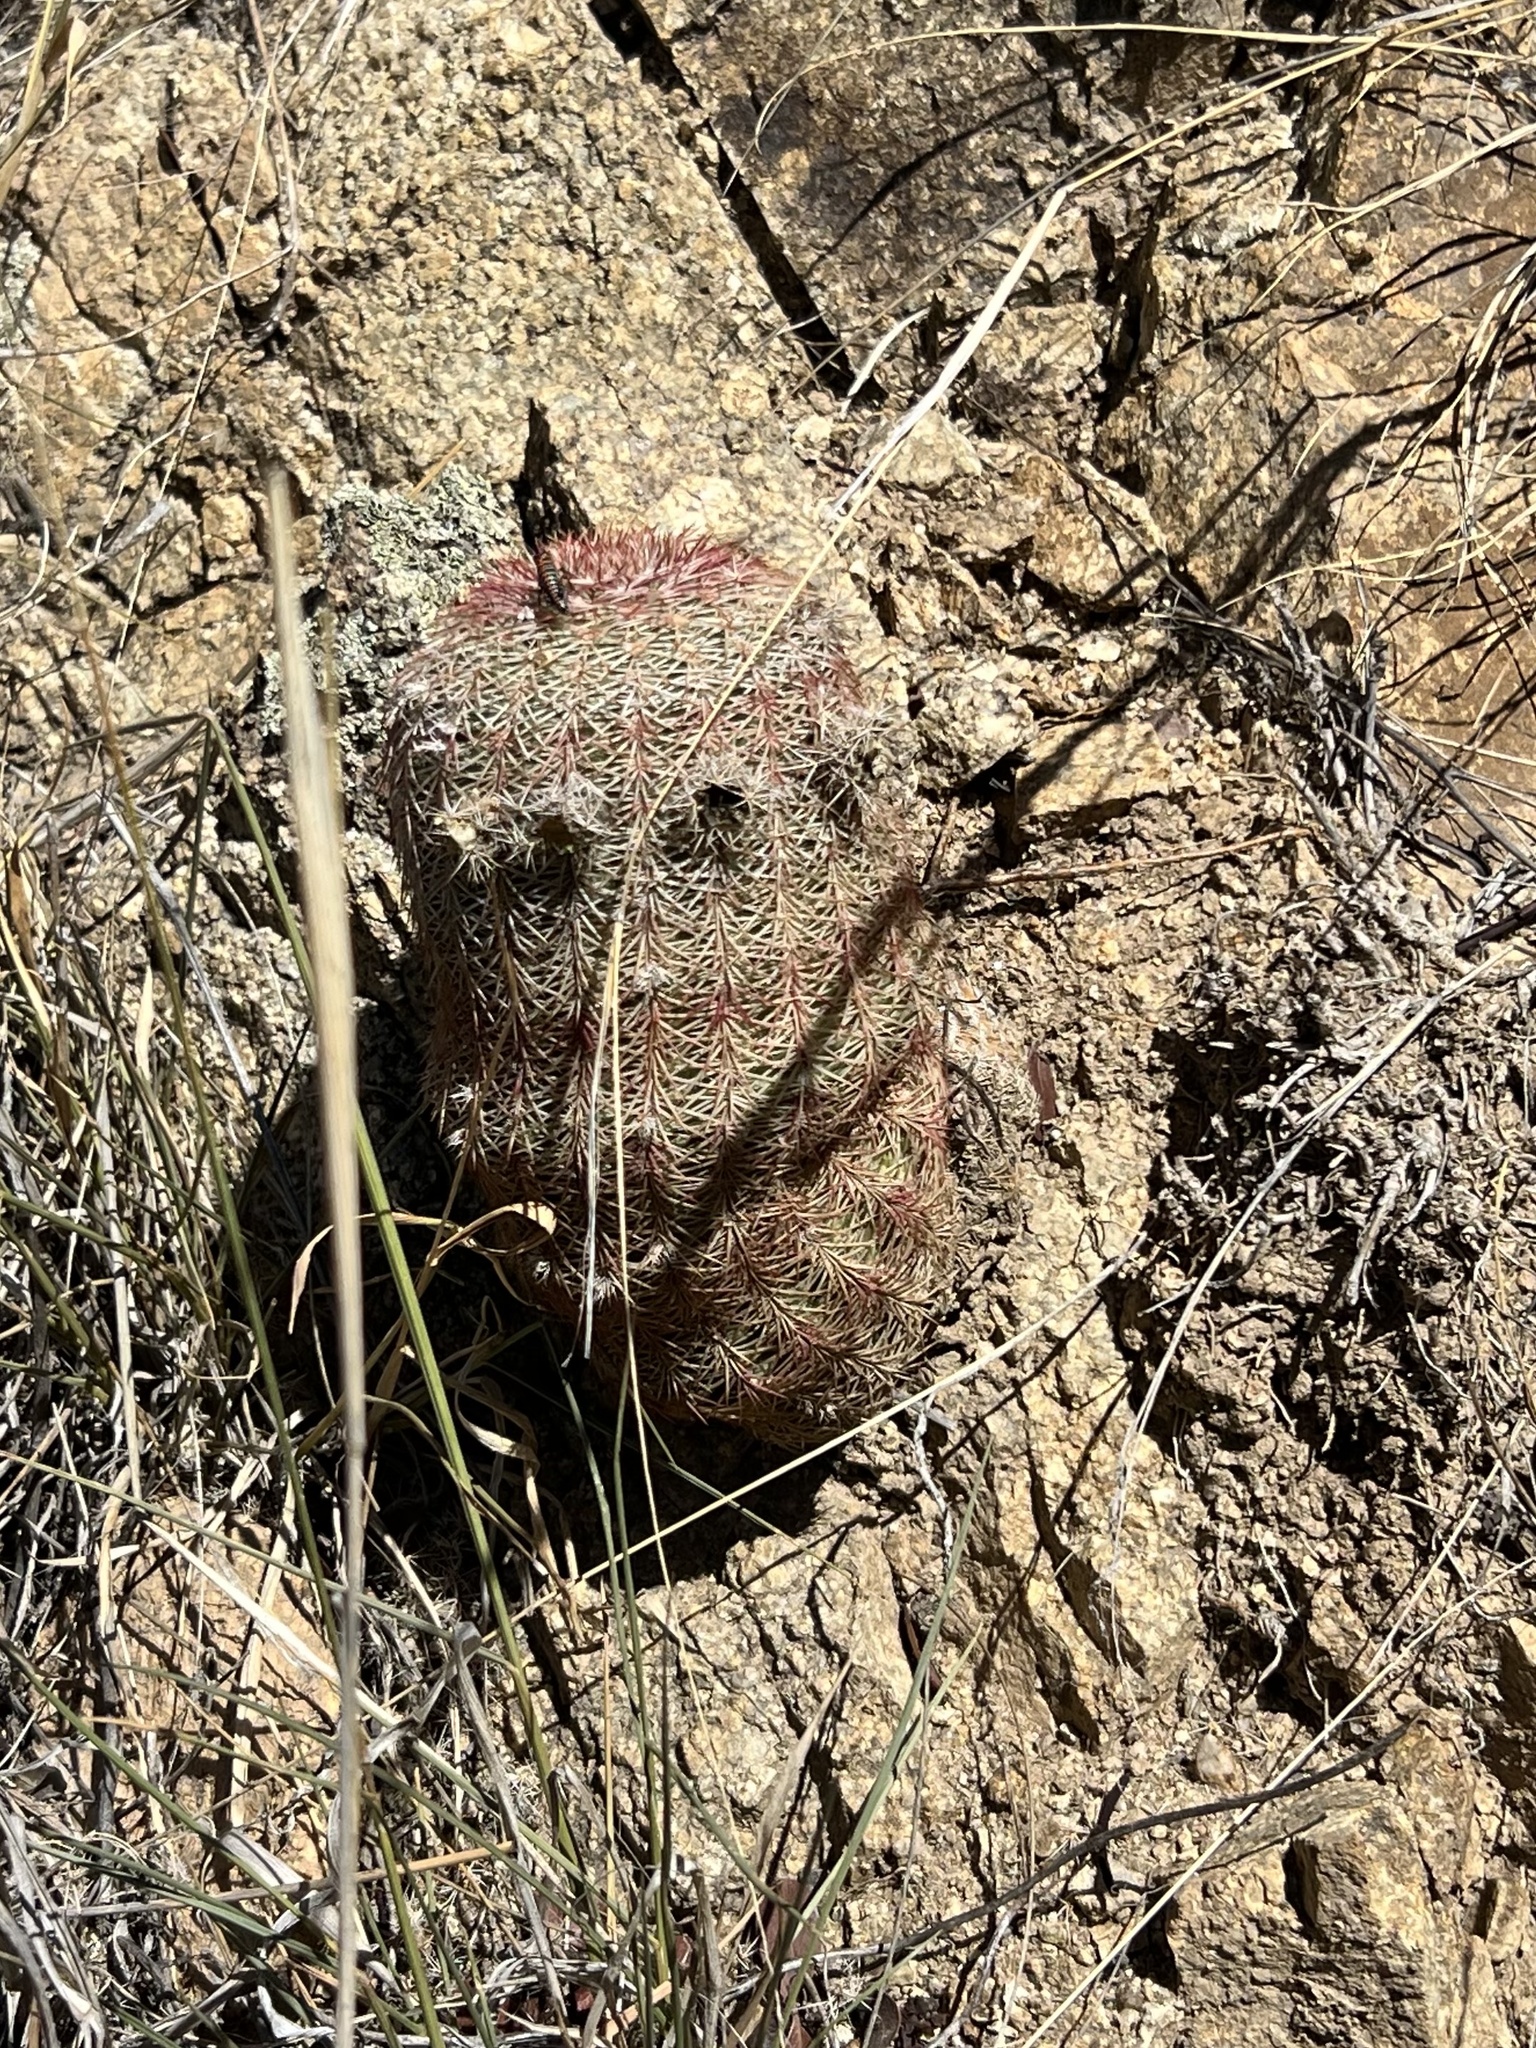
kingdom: Plantae
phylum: Tracheophyta
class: Magnoliopsida
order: Caryophyllales
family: Cactaceae
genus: Echinocereus
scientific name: Echinocereus rigidissimus
